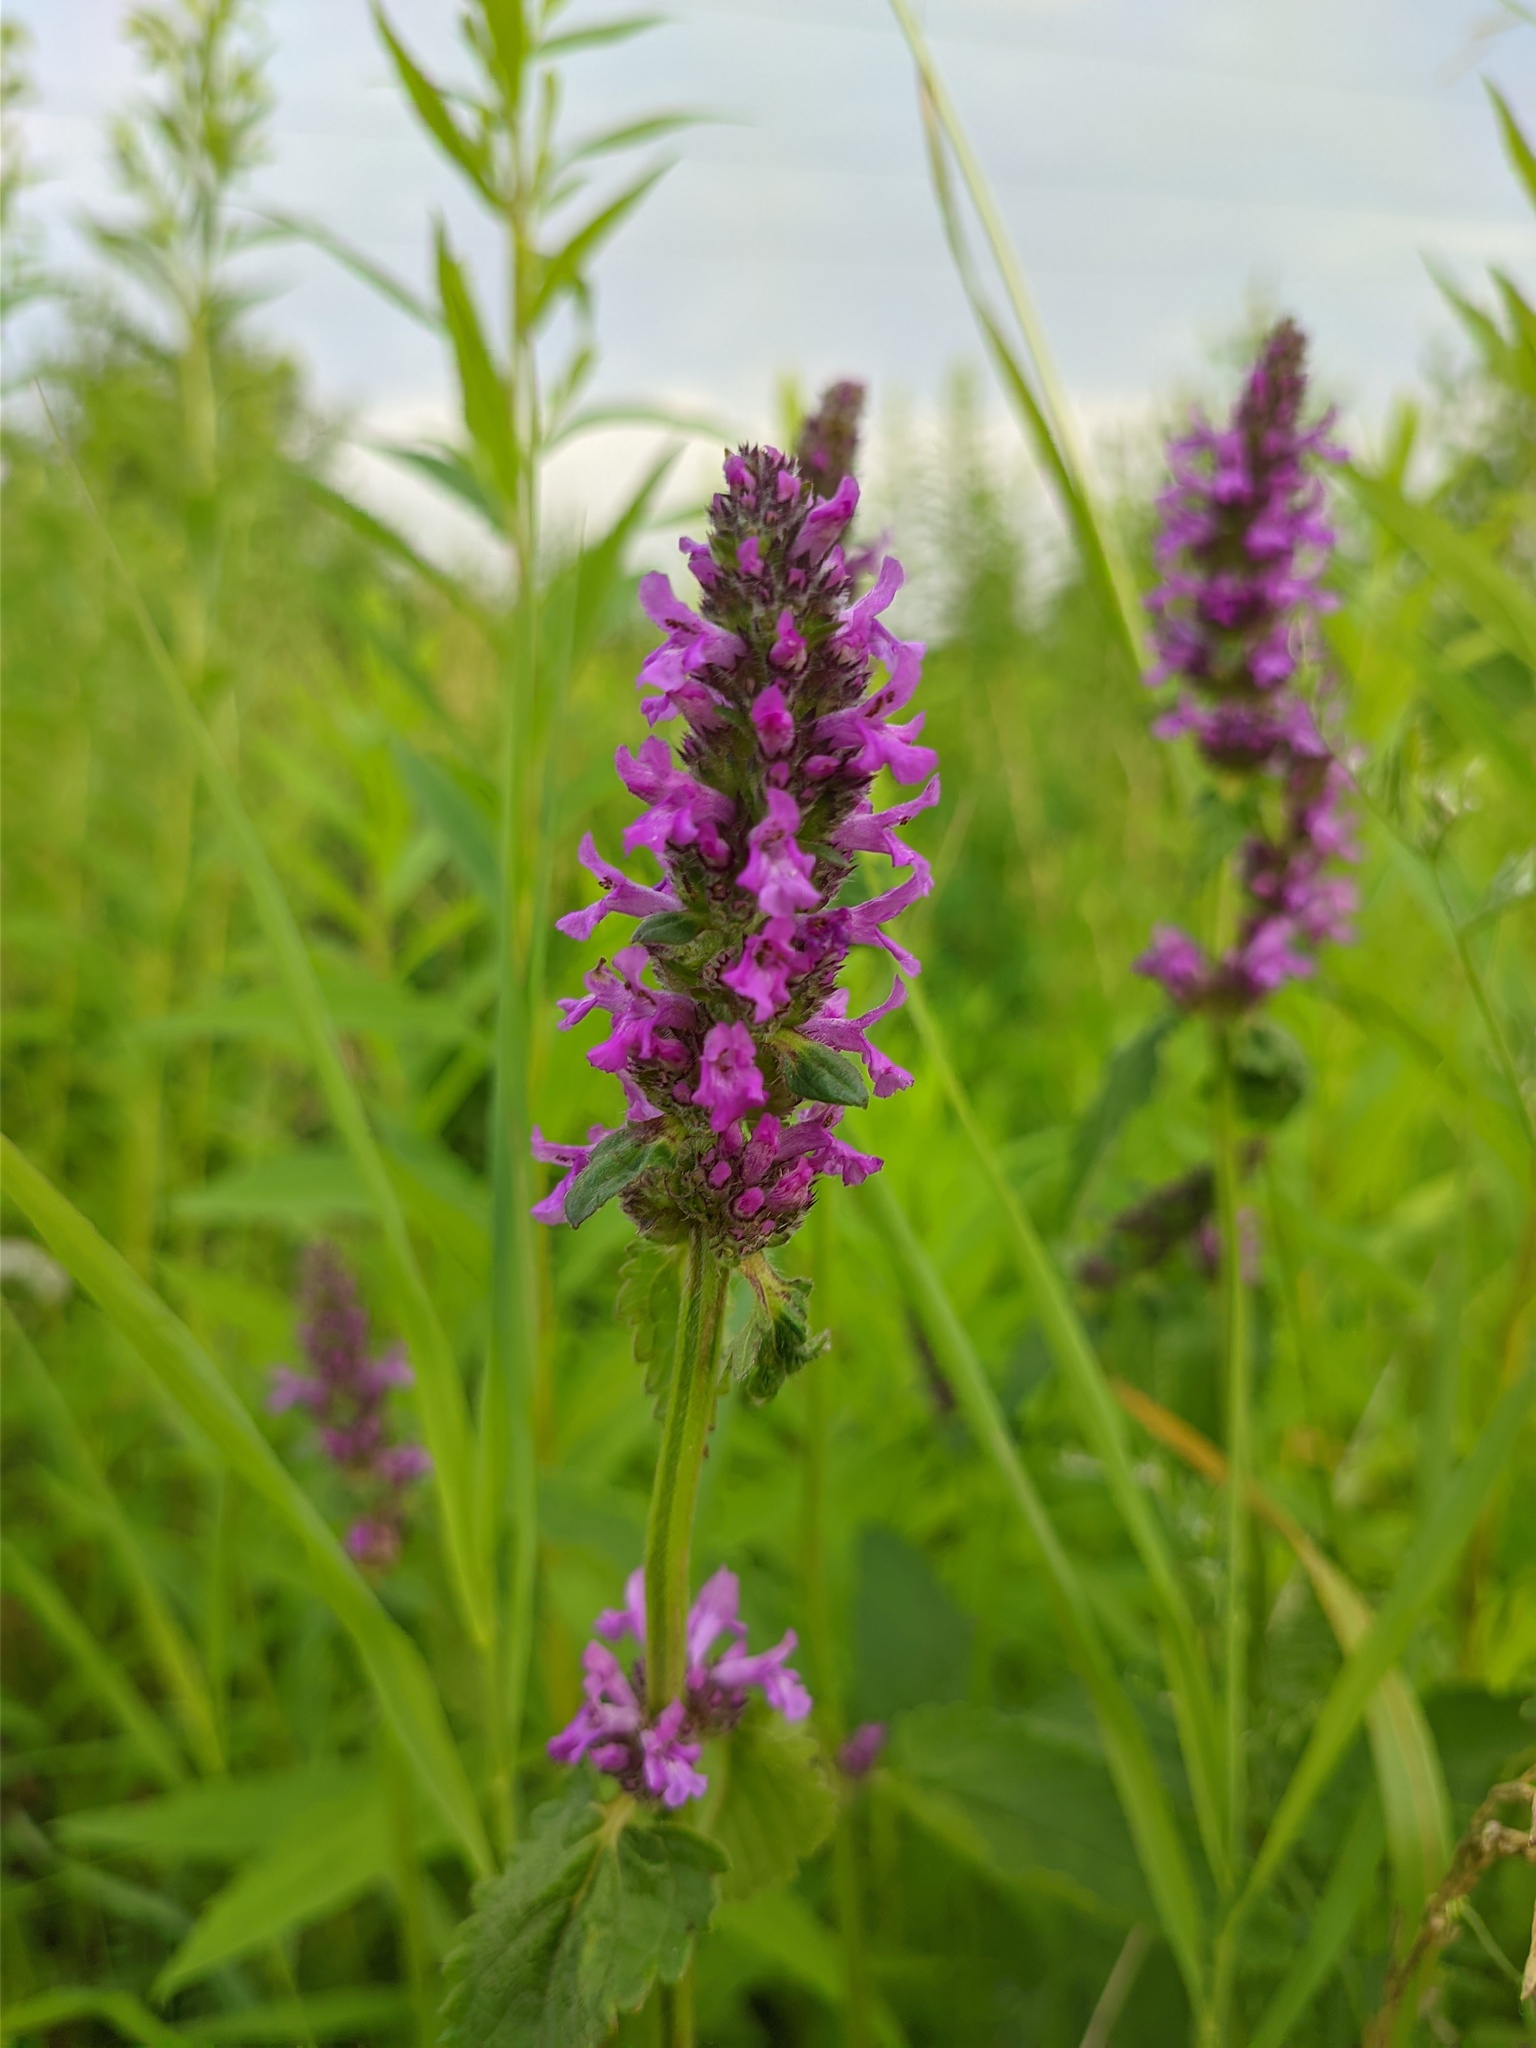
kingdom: Plantae
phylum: Tracheophyta
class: Magnoliopsida
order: Lamiales
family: Lamiaceae
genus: Betonica
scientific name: Betonica officinalis
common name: Bishop's-wort
